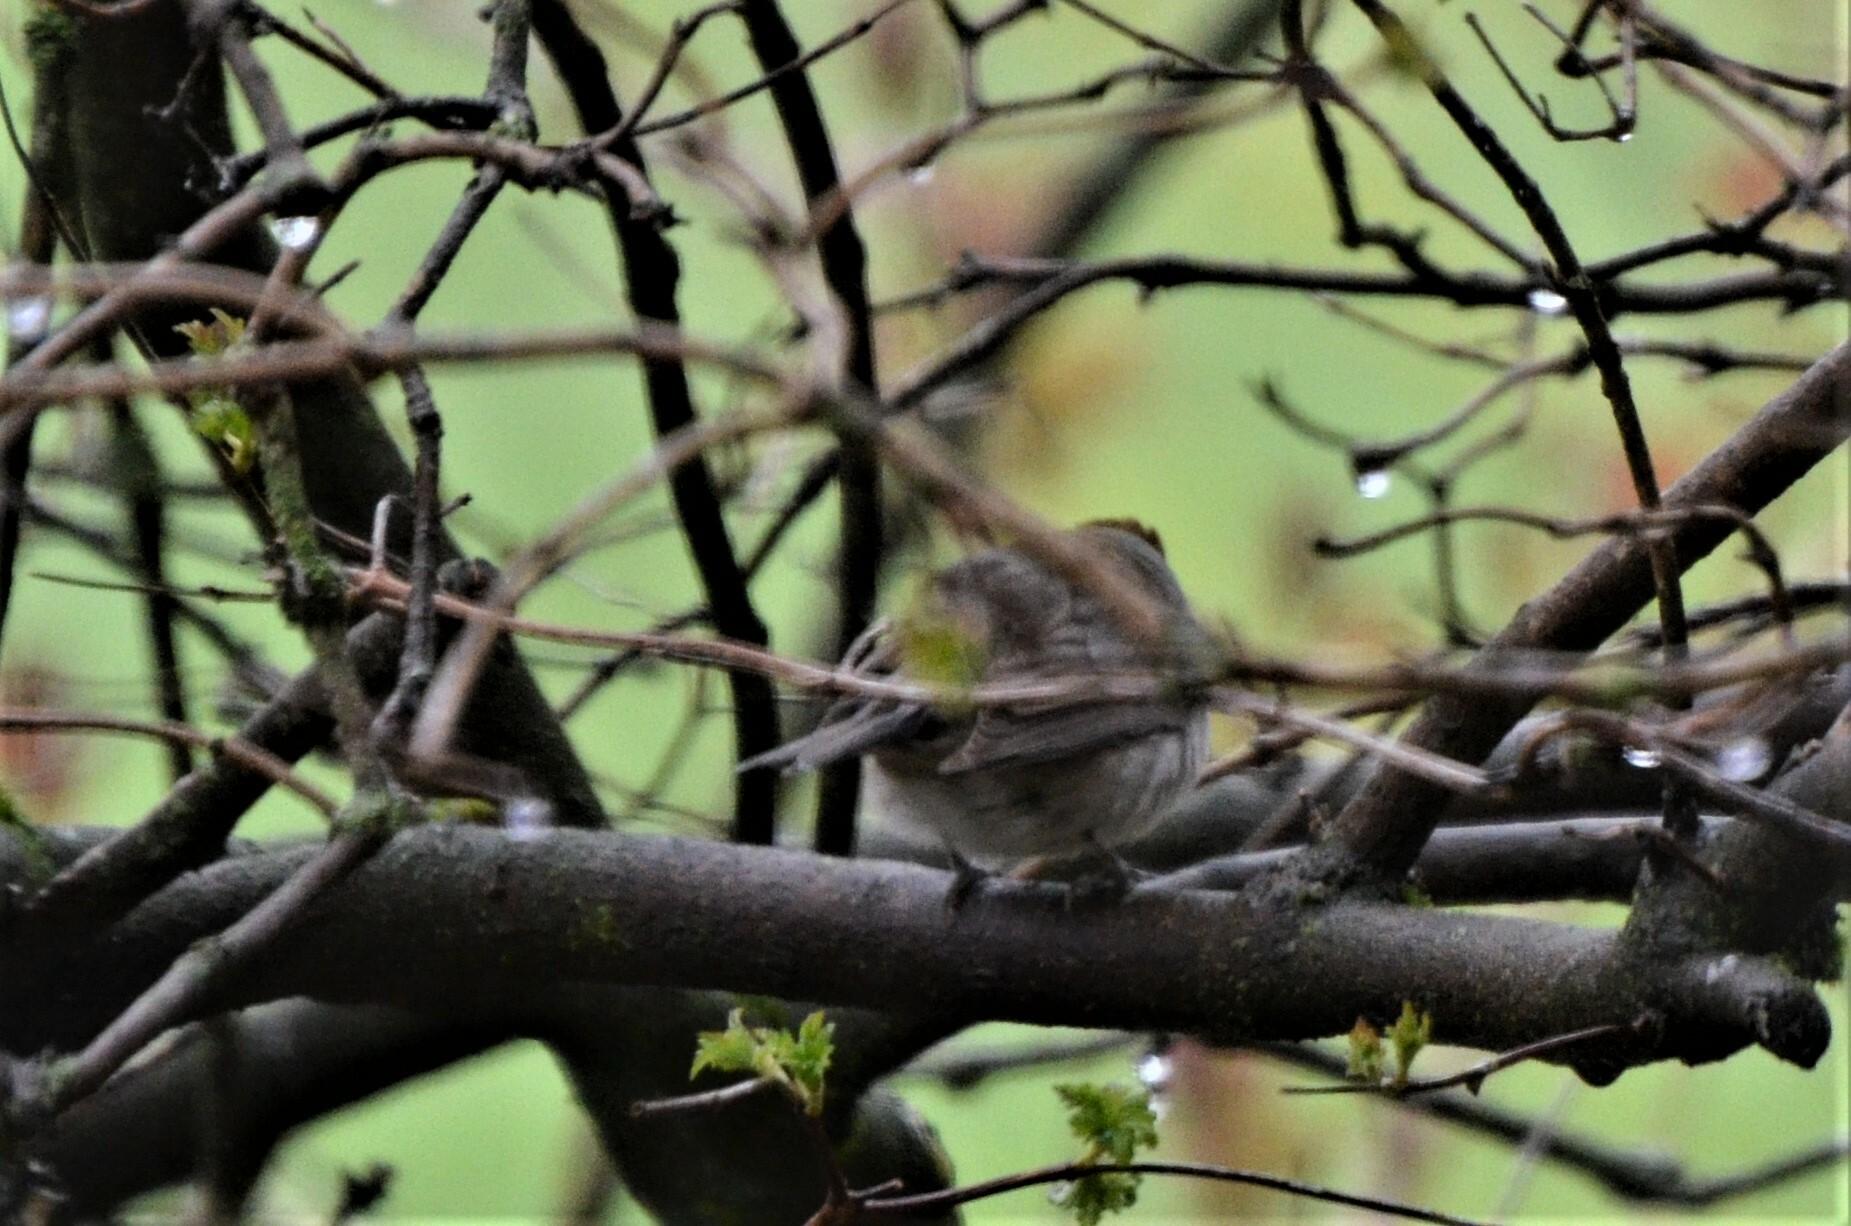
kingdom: Animalia
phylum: Chordata
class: Aves
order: Passeriformes
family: Sylviidae
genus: Sylvia
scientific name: Sylvia atricapilla
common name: Eurasian blackcap
